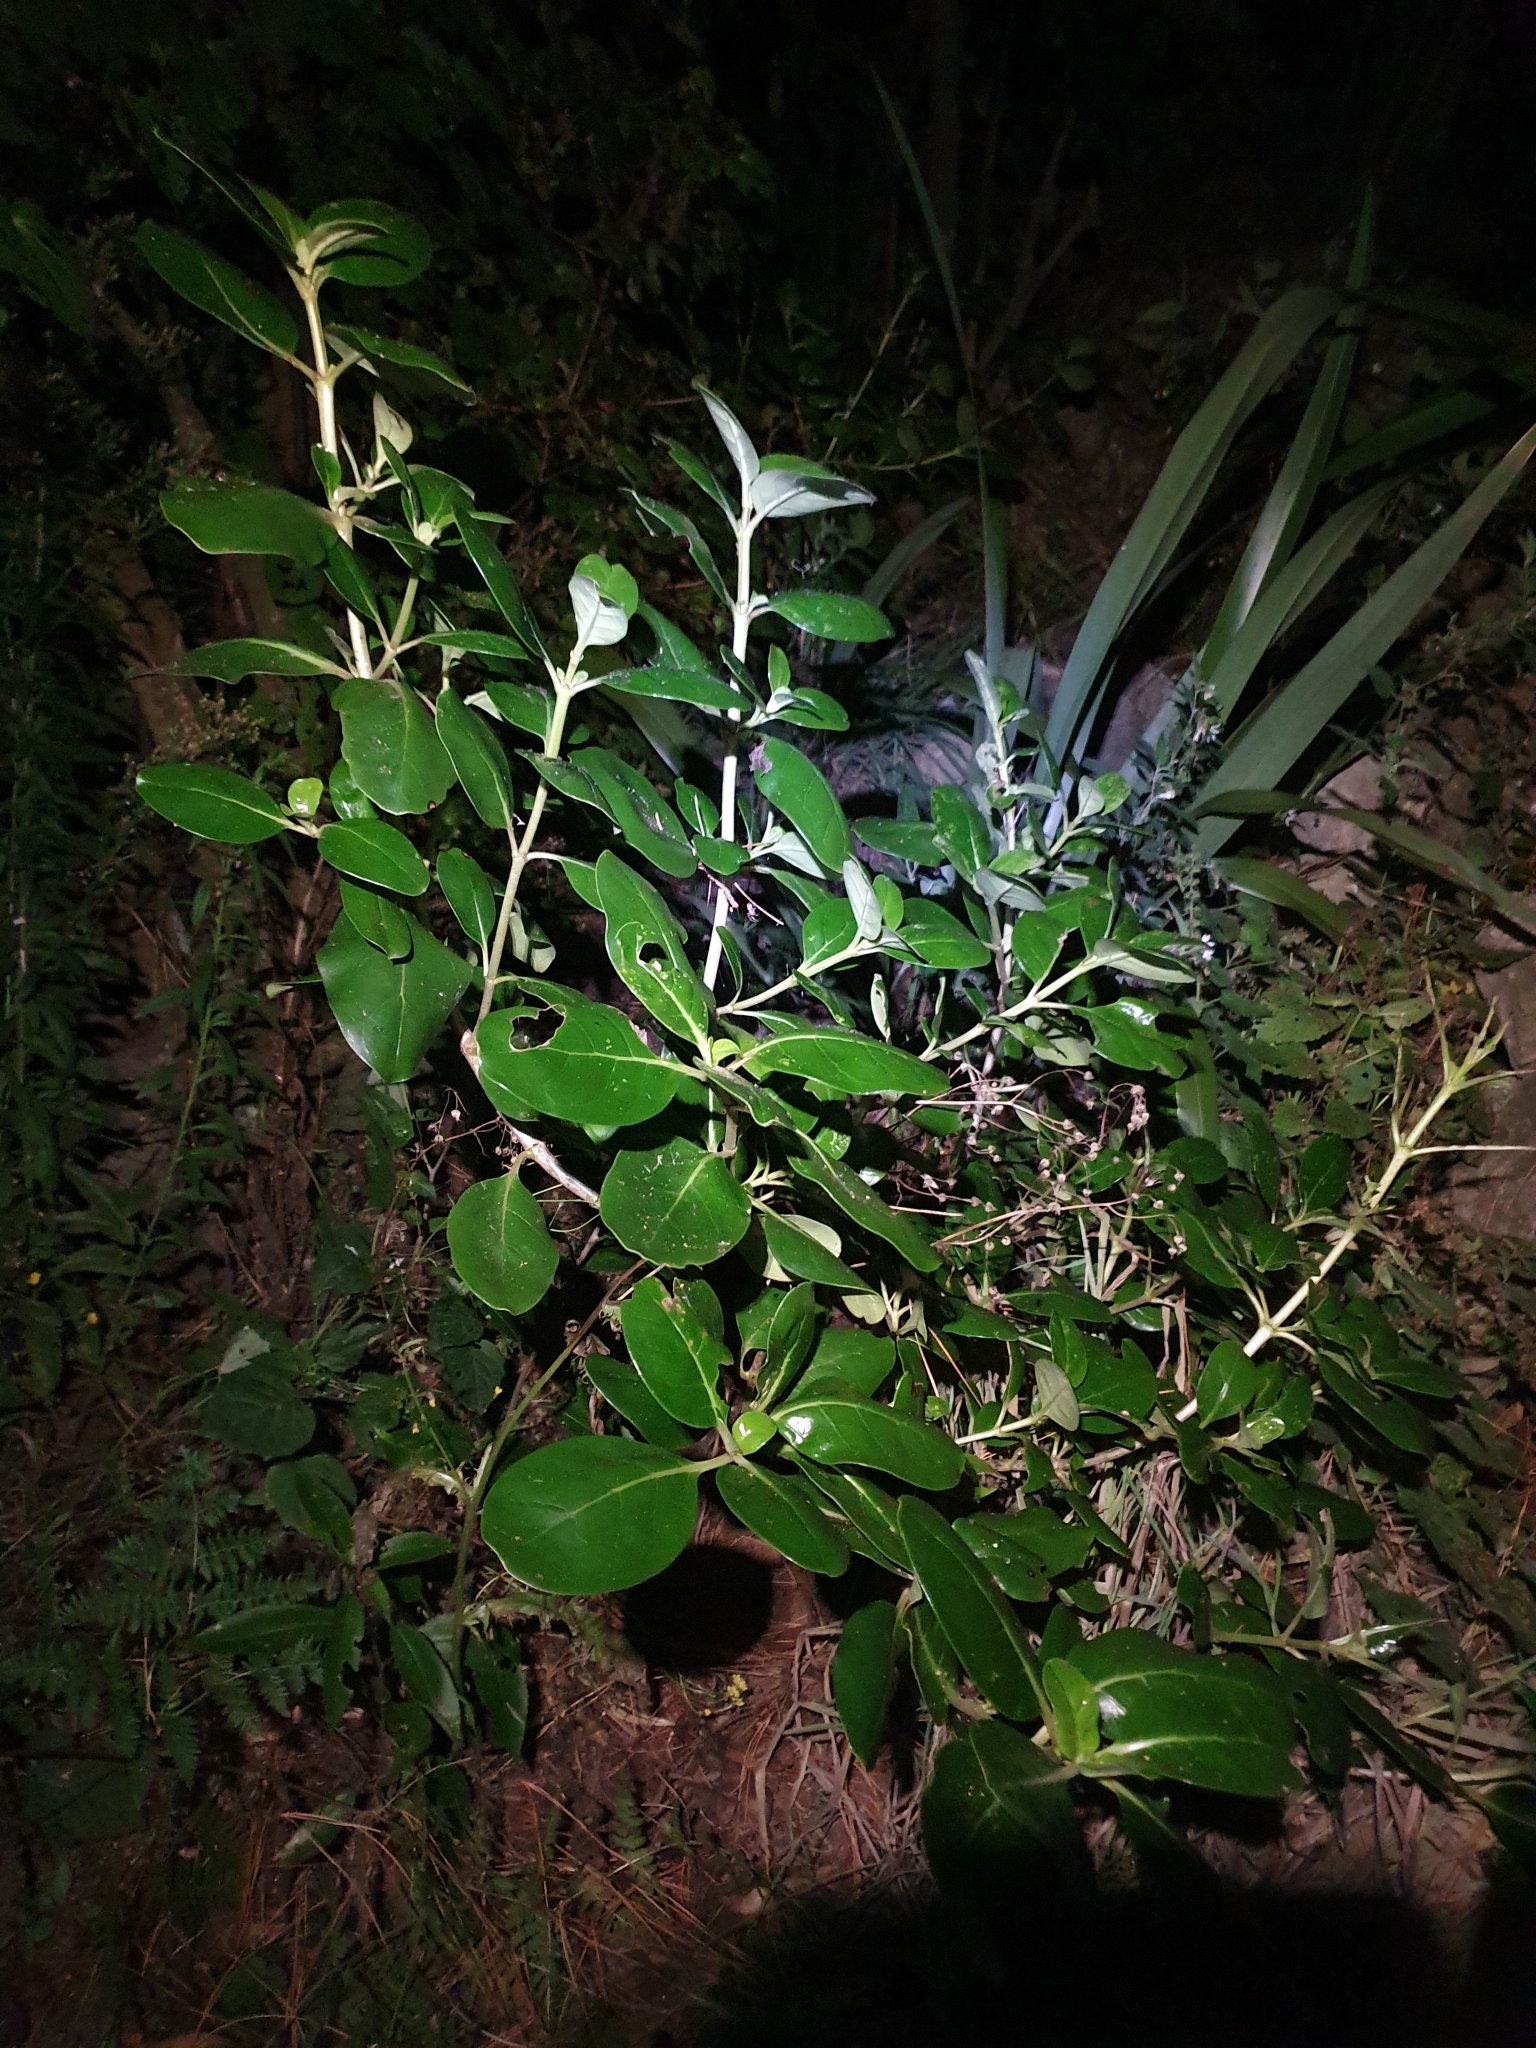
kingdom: Plantae
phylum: Tracheophyta
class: Magnoliopsida
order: Gentianales
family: Rubiaceae
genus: Coprosma
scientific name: Coprosma repens
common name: Tree bedstraw
